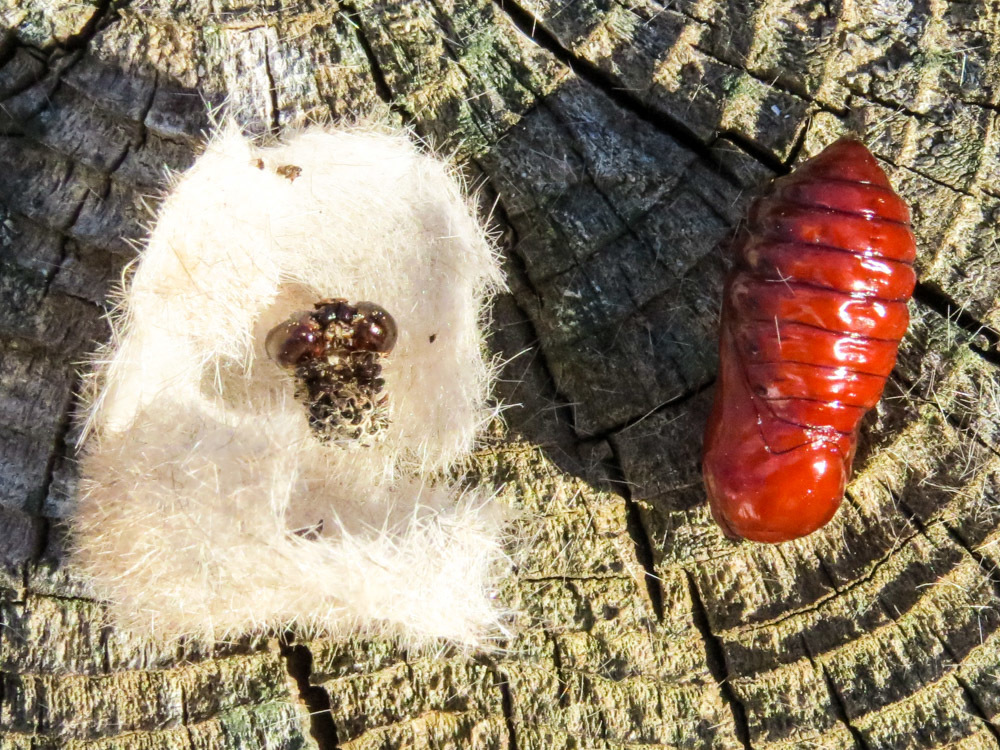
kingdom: Animalia
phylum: Arthropoda
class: Insecta
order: Lepidoptera
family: Erebidae
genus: Lophocampa
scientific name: Lophocampa caryae
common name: Hickory tussock moth
